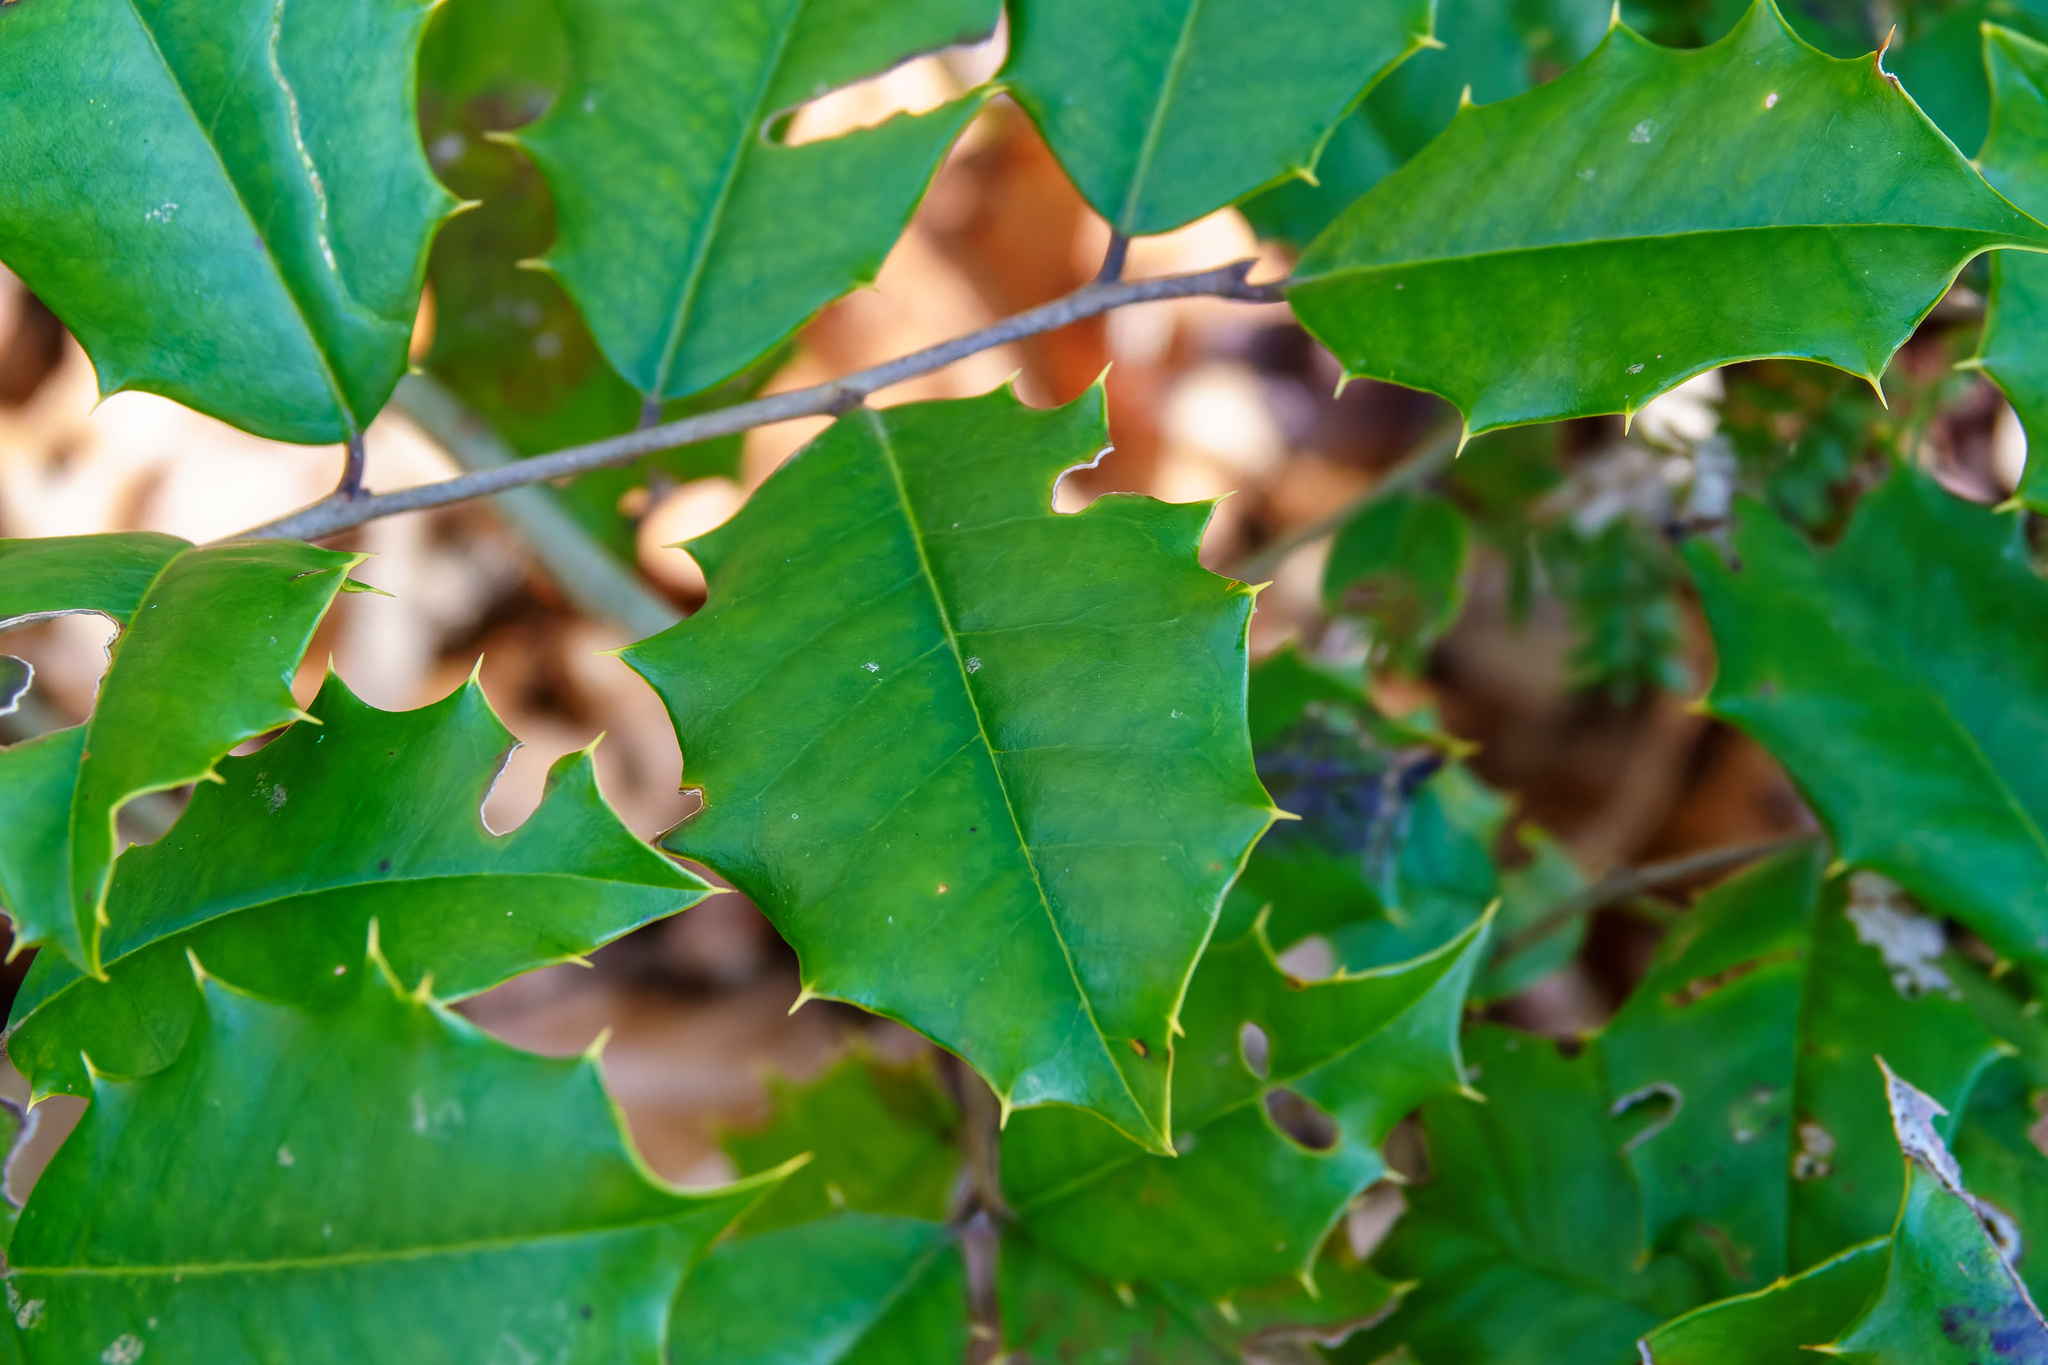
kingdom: Plantae
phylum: Tracheophyta
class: Magnoliopsida
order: Aquifoliales
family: Aquifoliaceae
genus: Ilex
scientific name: Ilex opaca
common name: American holly
